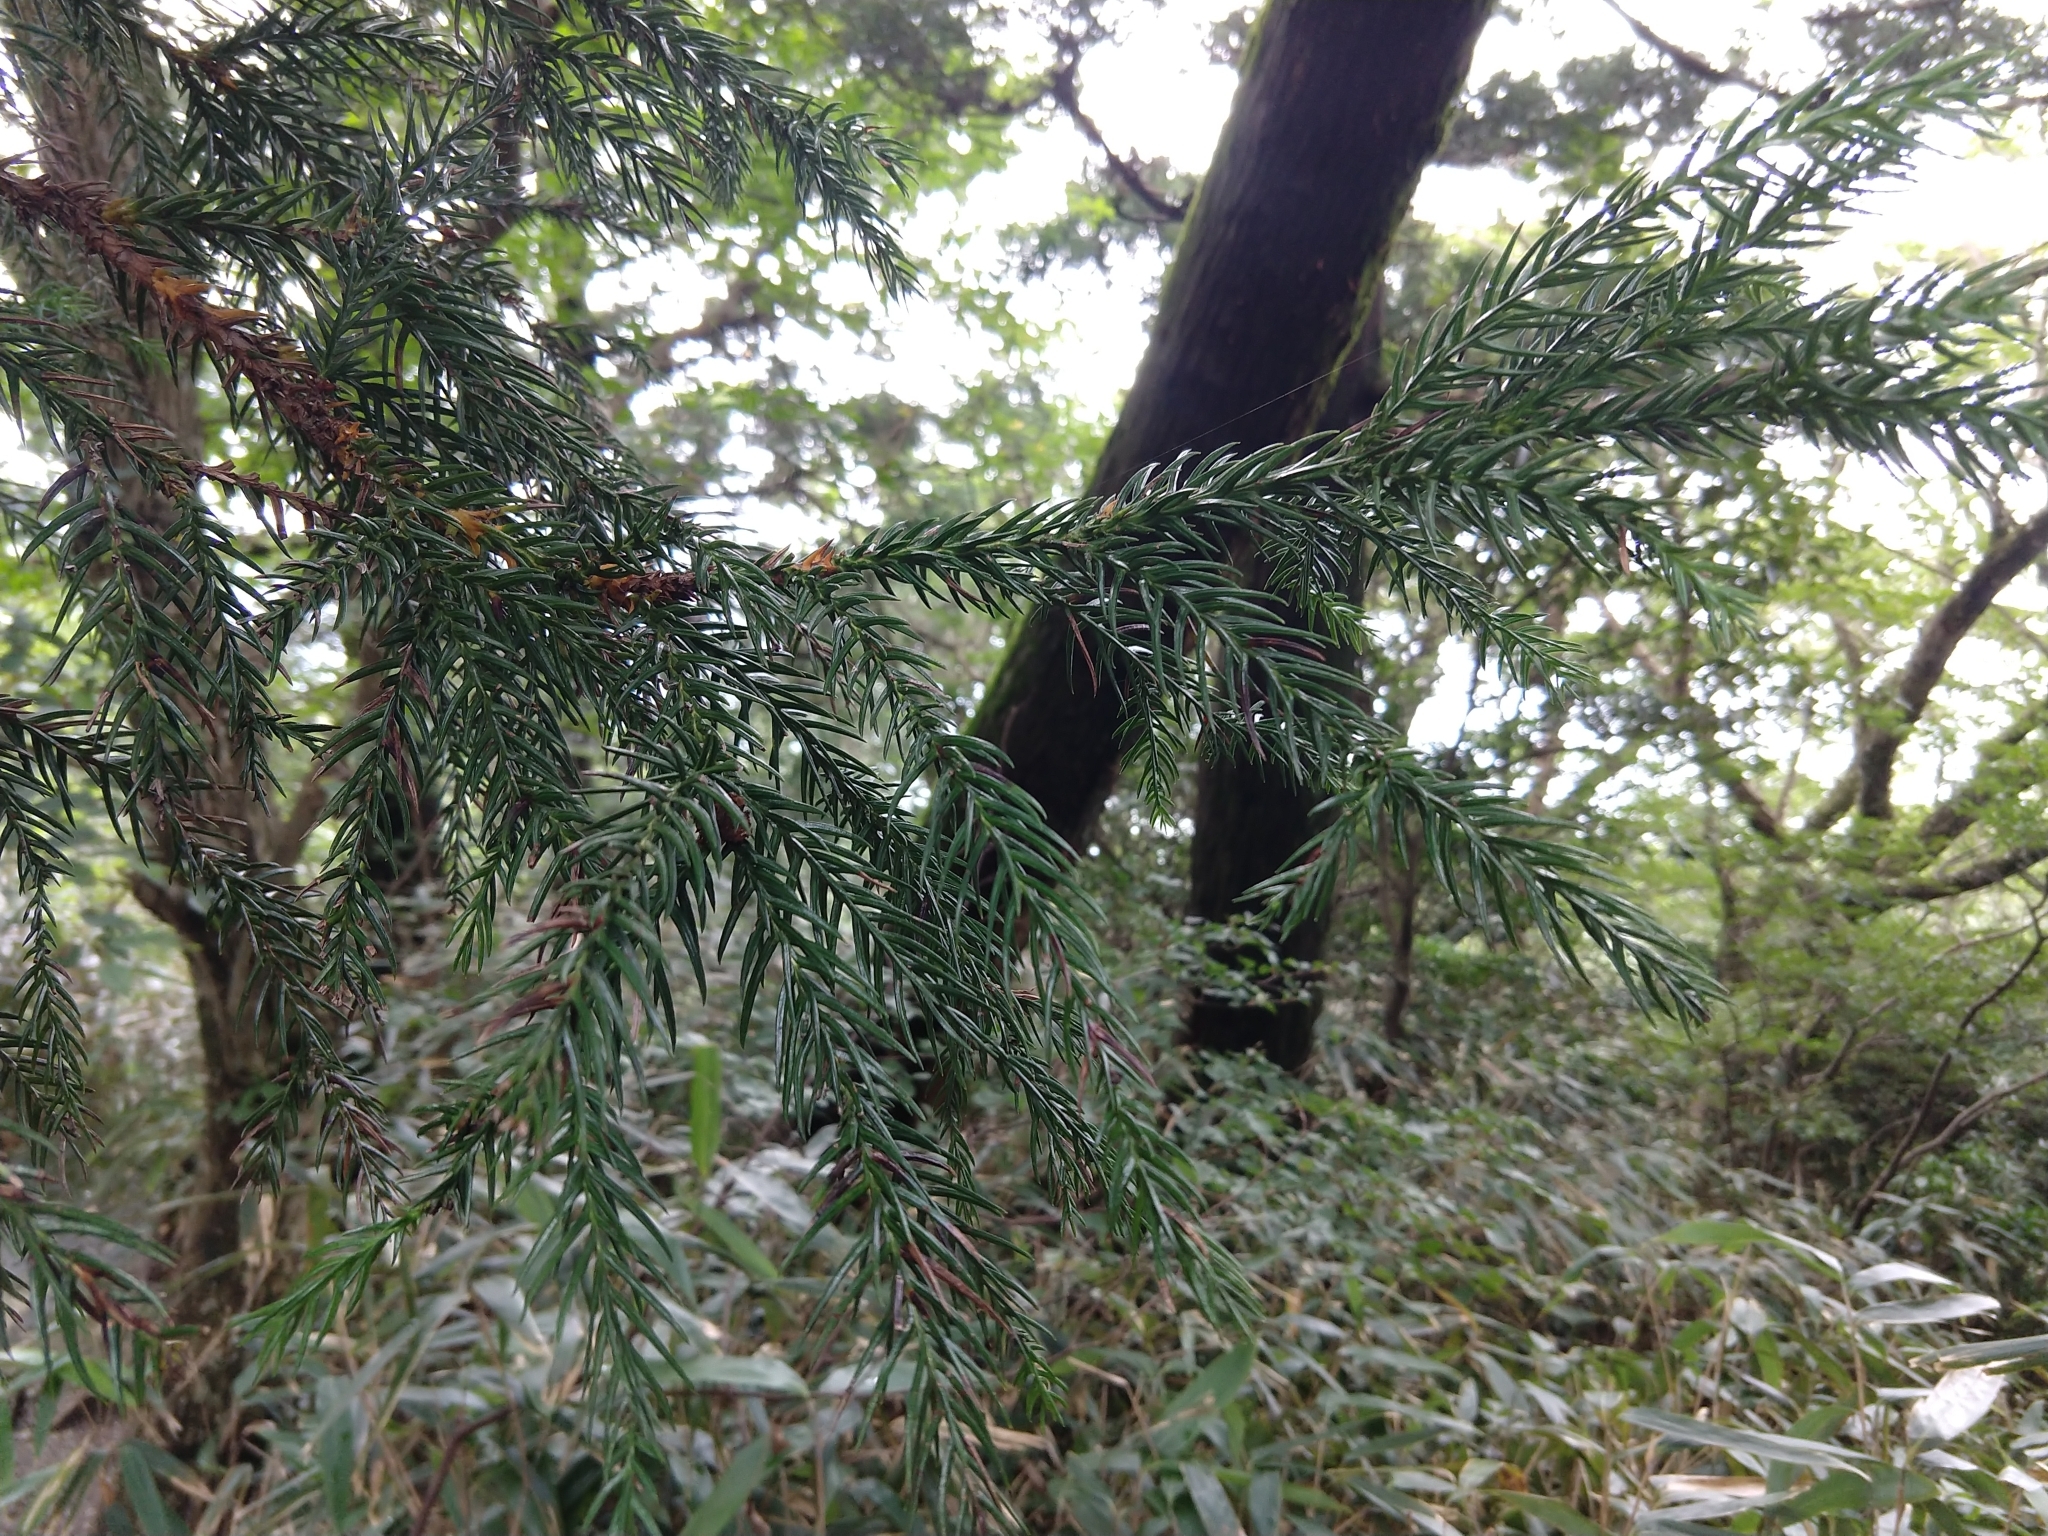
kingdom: Plantae
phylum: Tracheophyta
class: Pinopsida
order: Pinales
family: Cupressaceae
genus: Cryptomeria
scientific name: Cryptomeria japonica
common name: Japanese cedar
